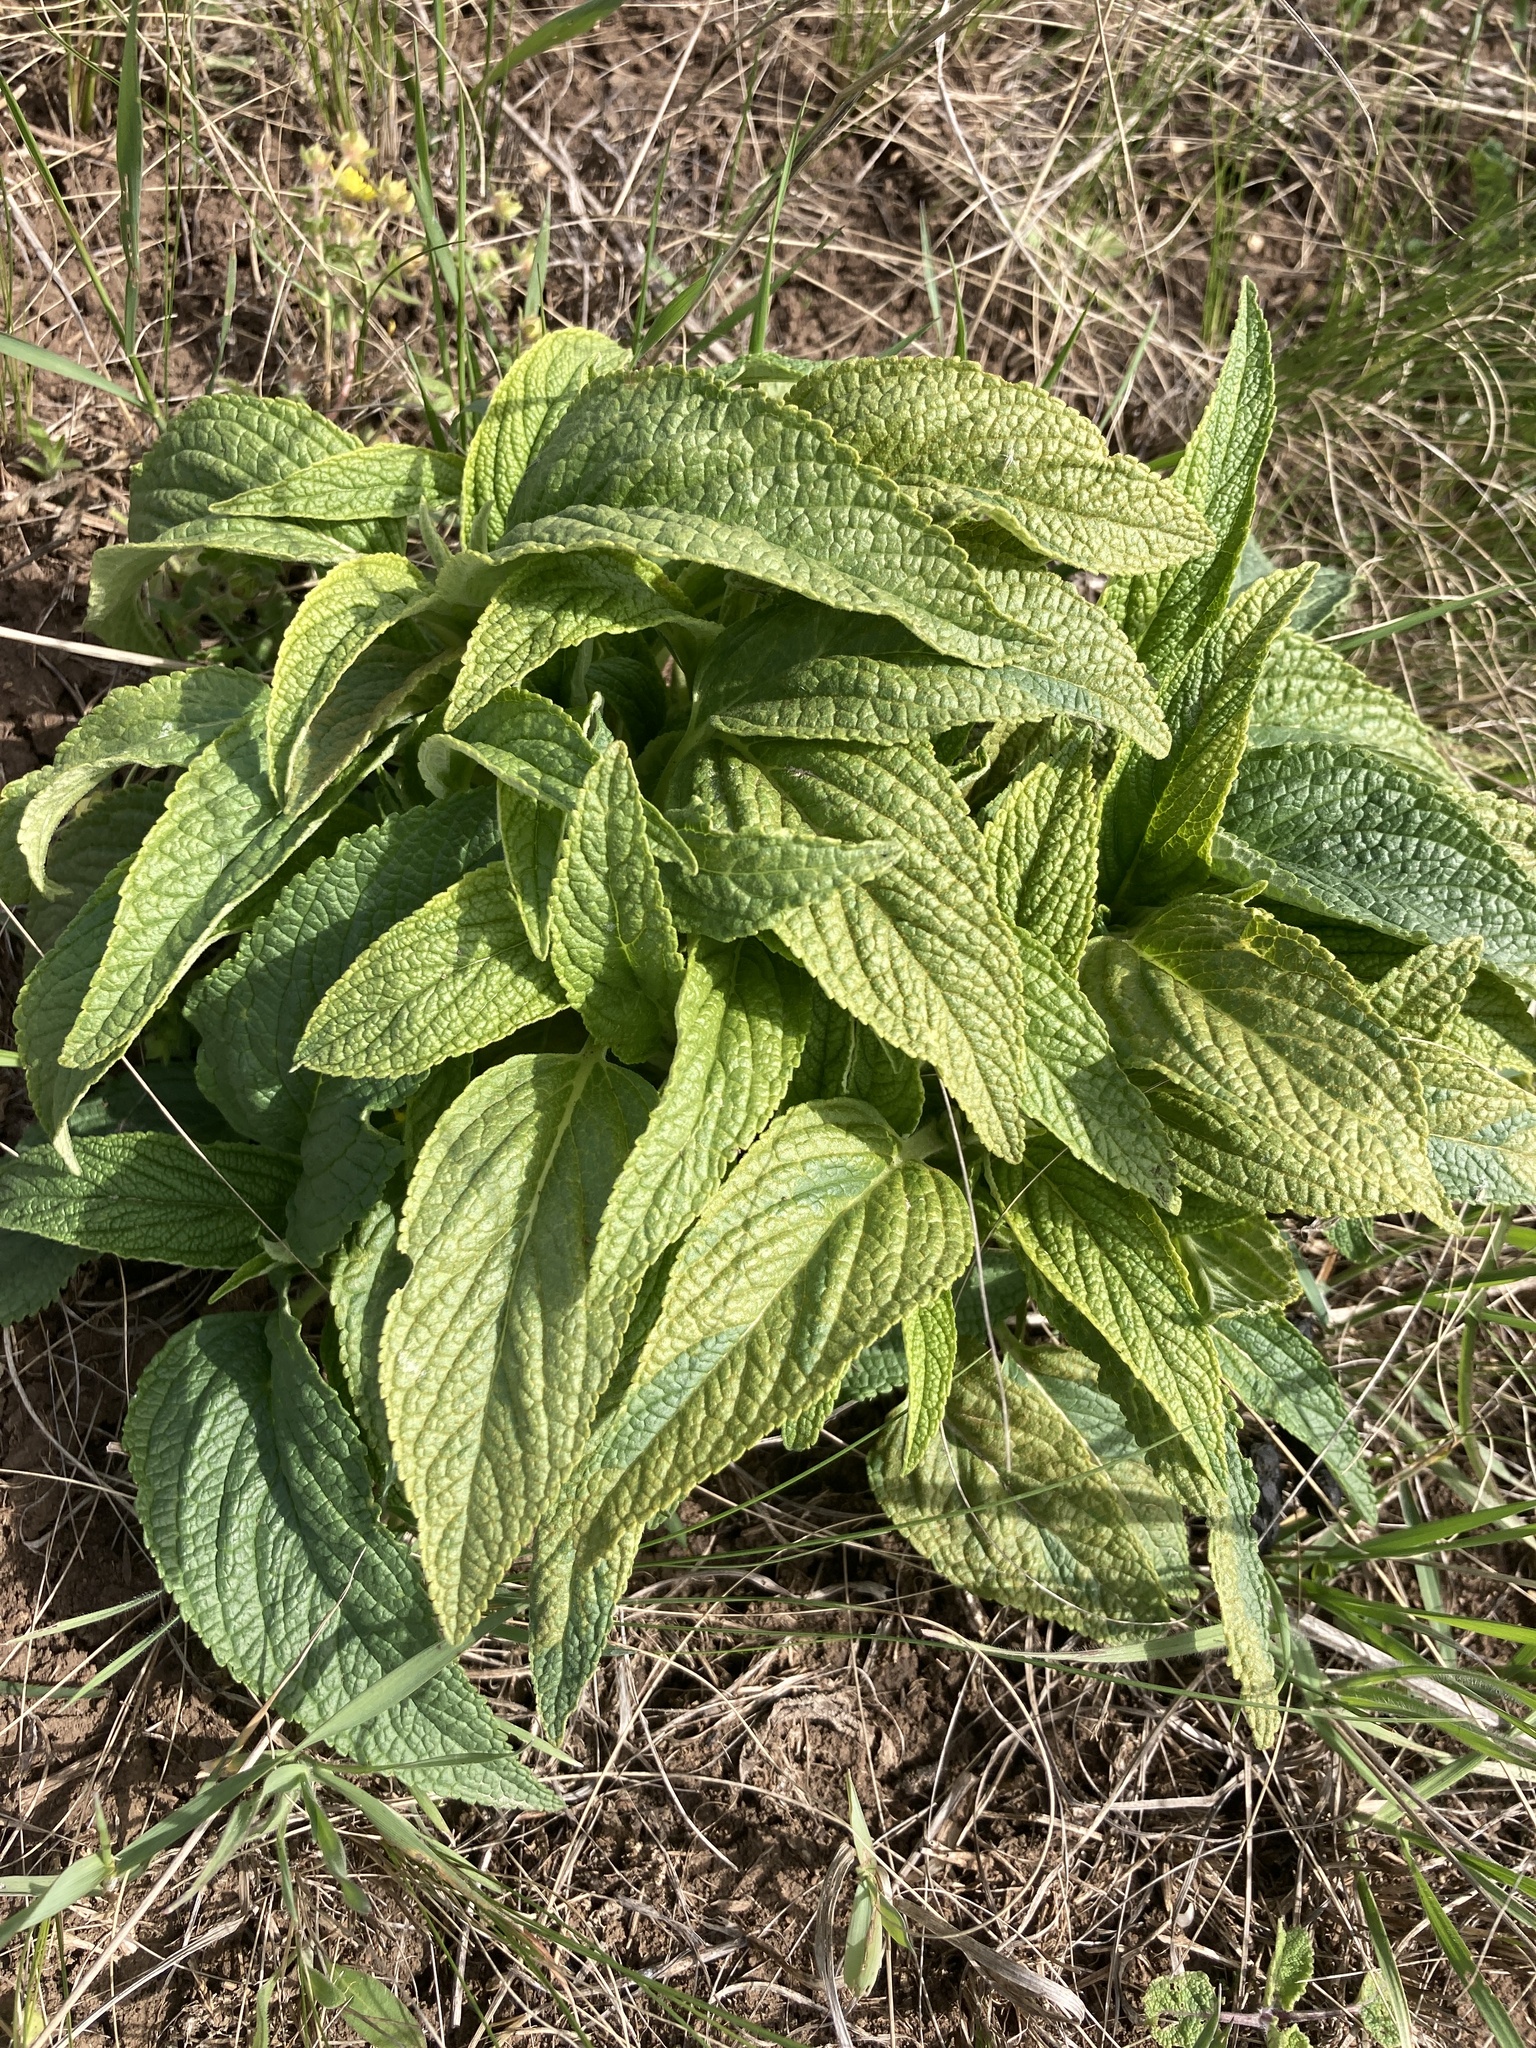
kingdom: Plantae
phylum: Tracheophyta
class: Magnoliopsida
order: Lamiales
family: Lamiaceae
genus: Phlomis
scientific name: Phlomis herba-venti
